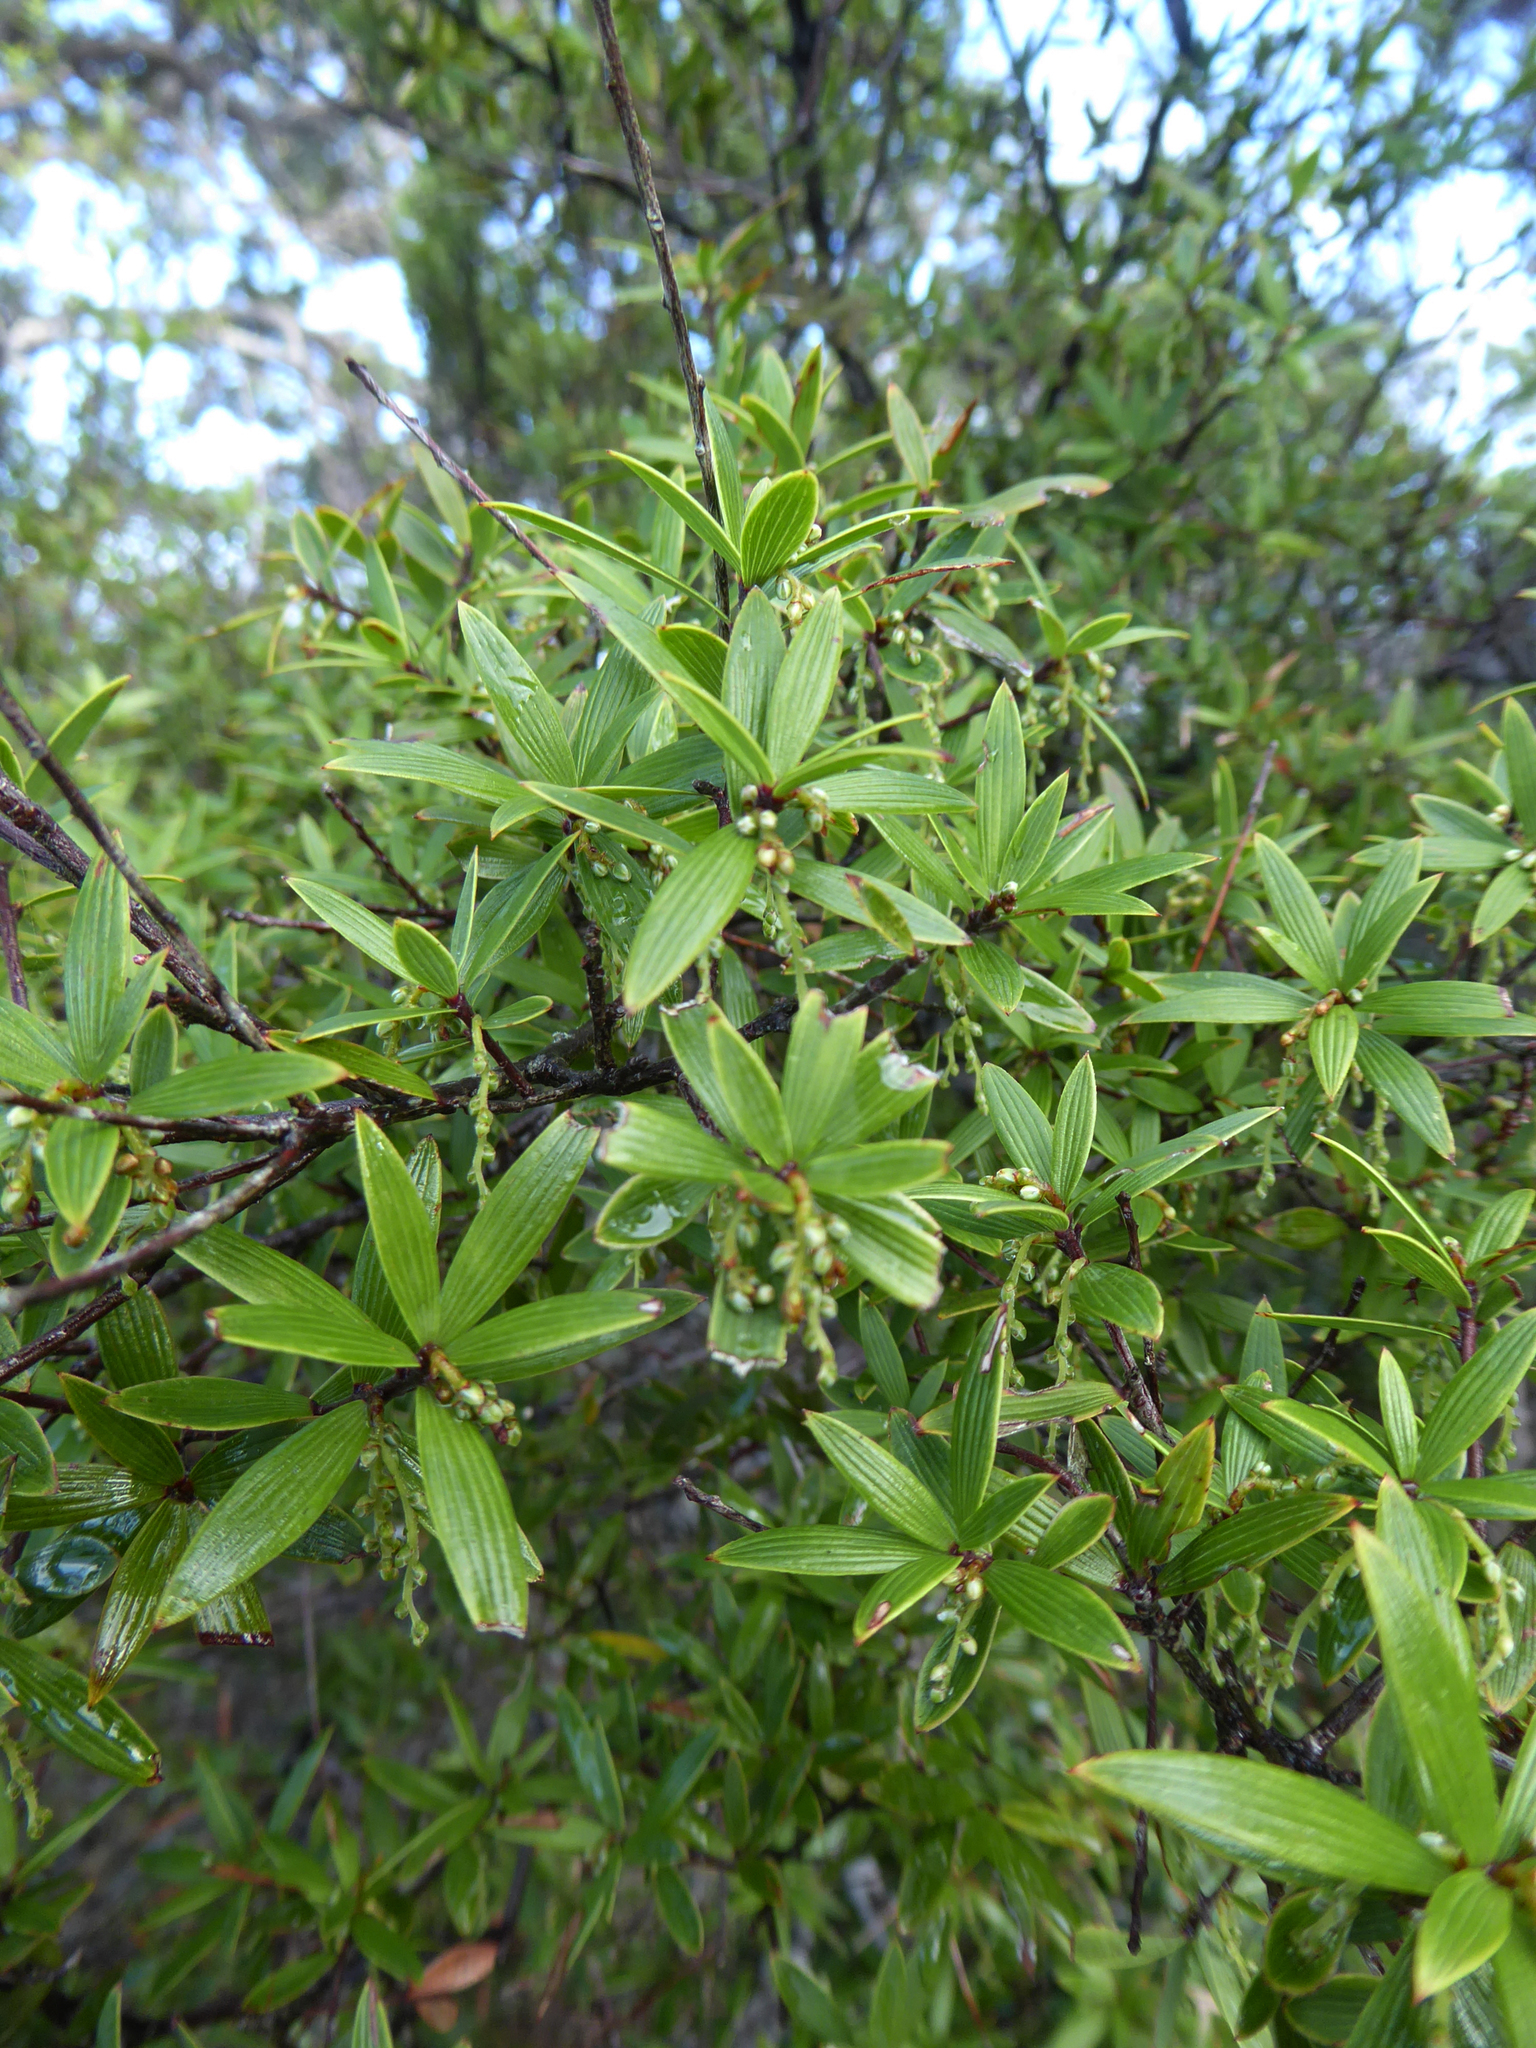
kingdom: Plantae
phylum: Tracheophyta
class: Magnoliopsida
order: Ericales
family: Ericaceae
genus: Leucopogon
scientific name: Leucopogon fasciculatus
